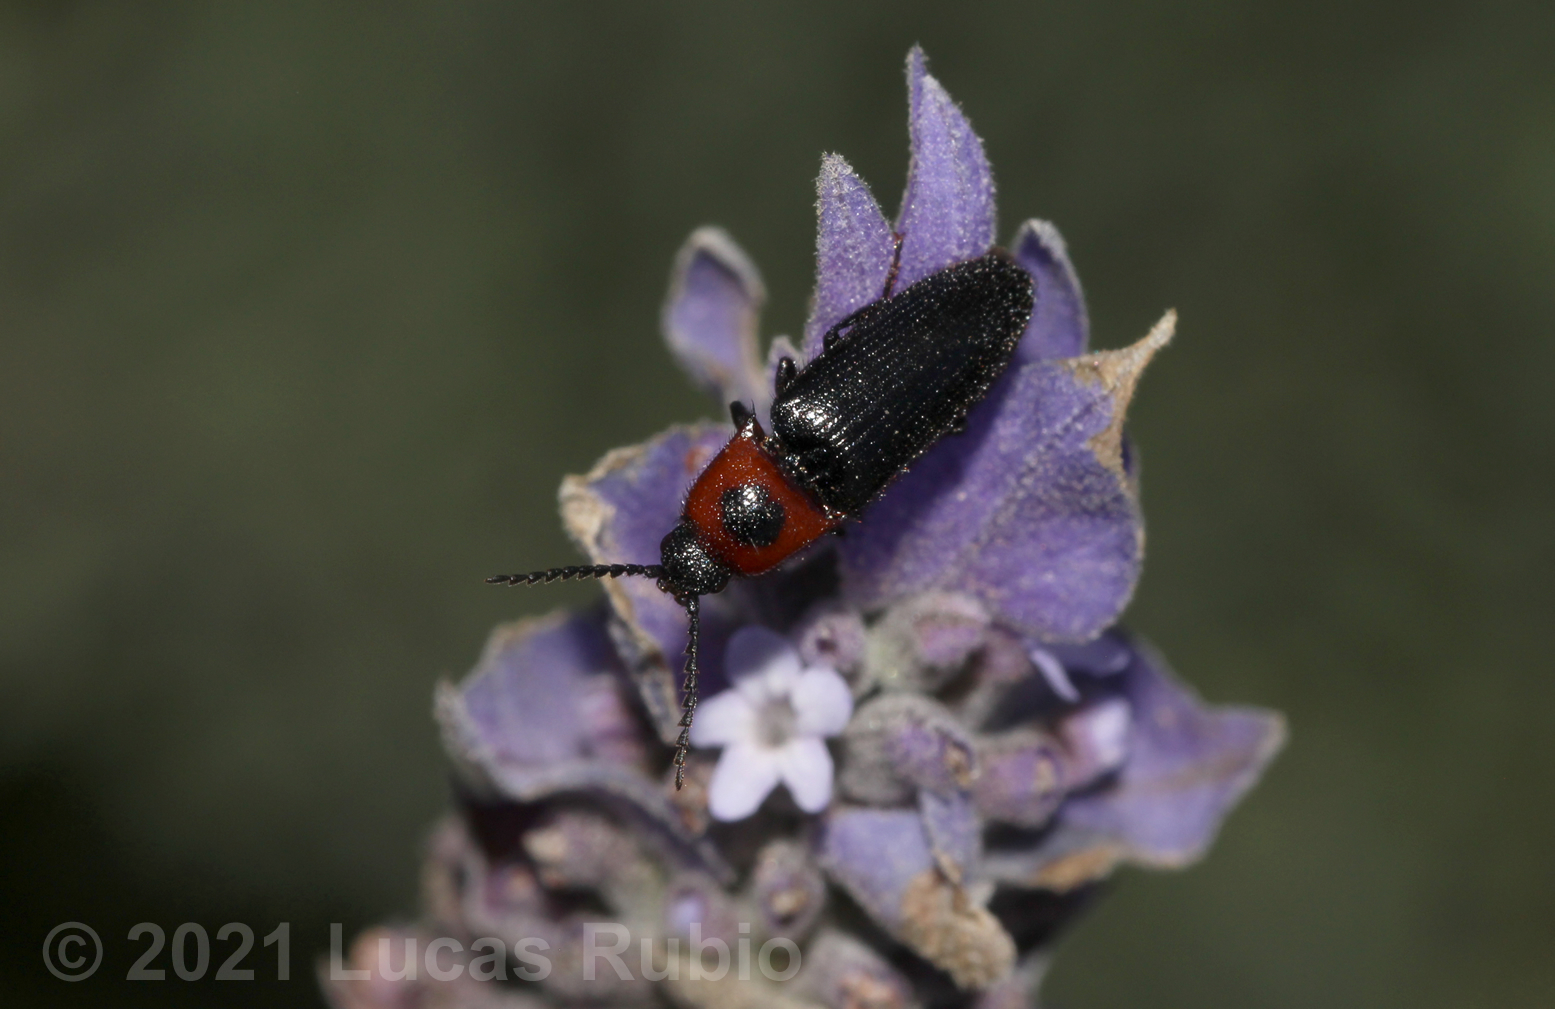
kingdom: Animalia
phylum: Arthropoda
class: Insecta
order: Coleoptera
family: Elateridae
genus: Anoplischius
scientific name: Anoplischius
